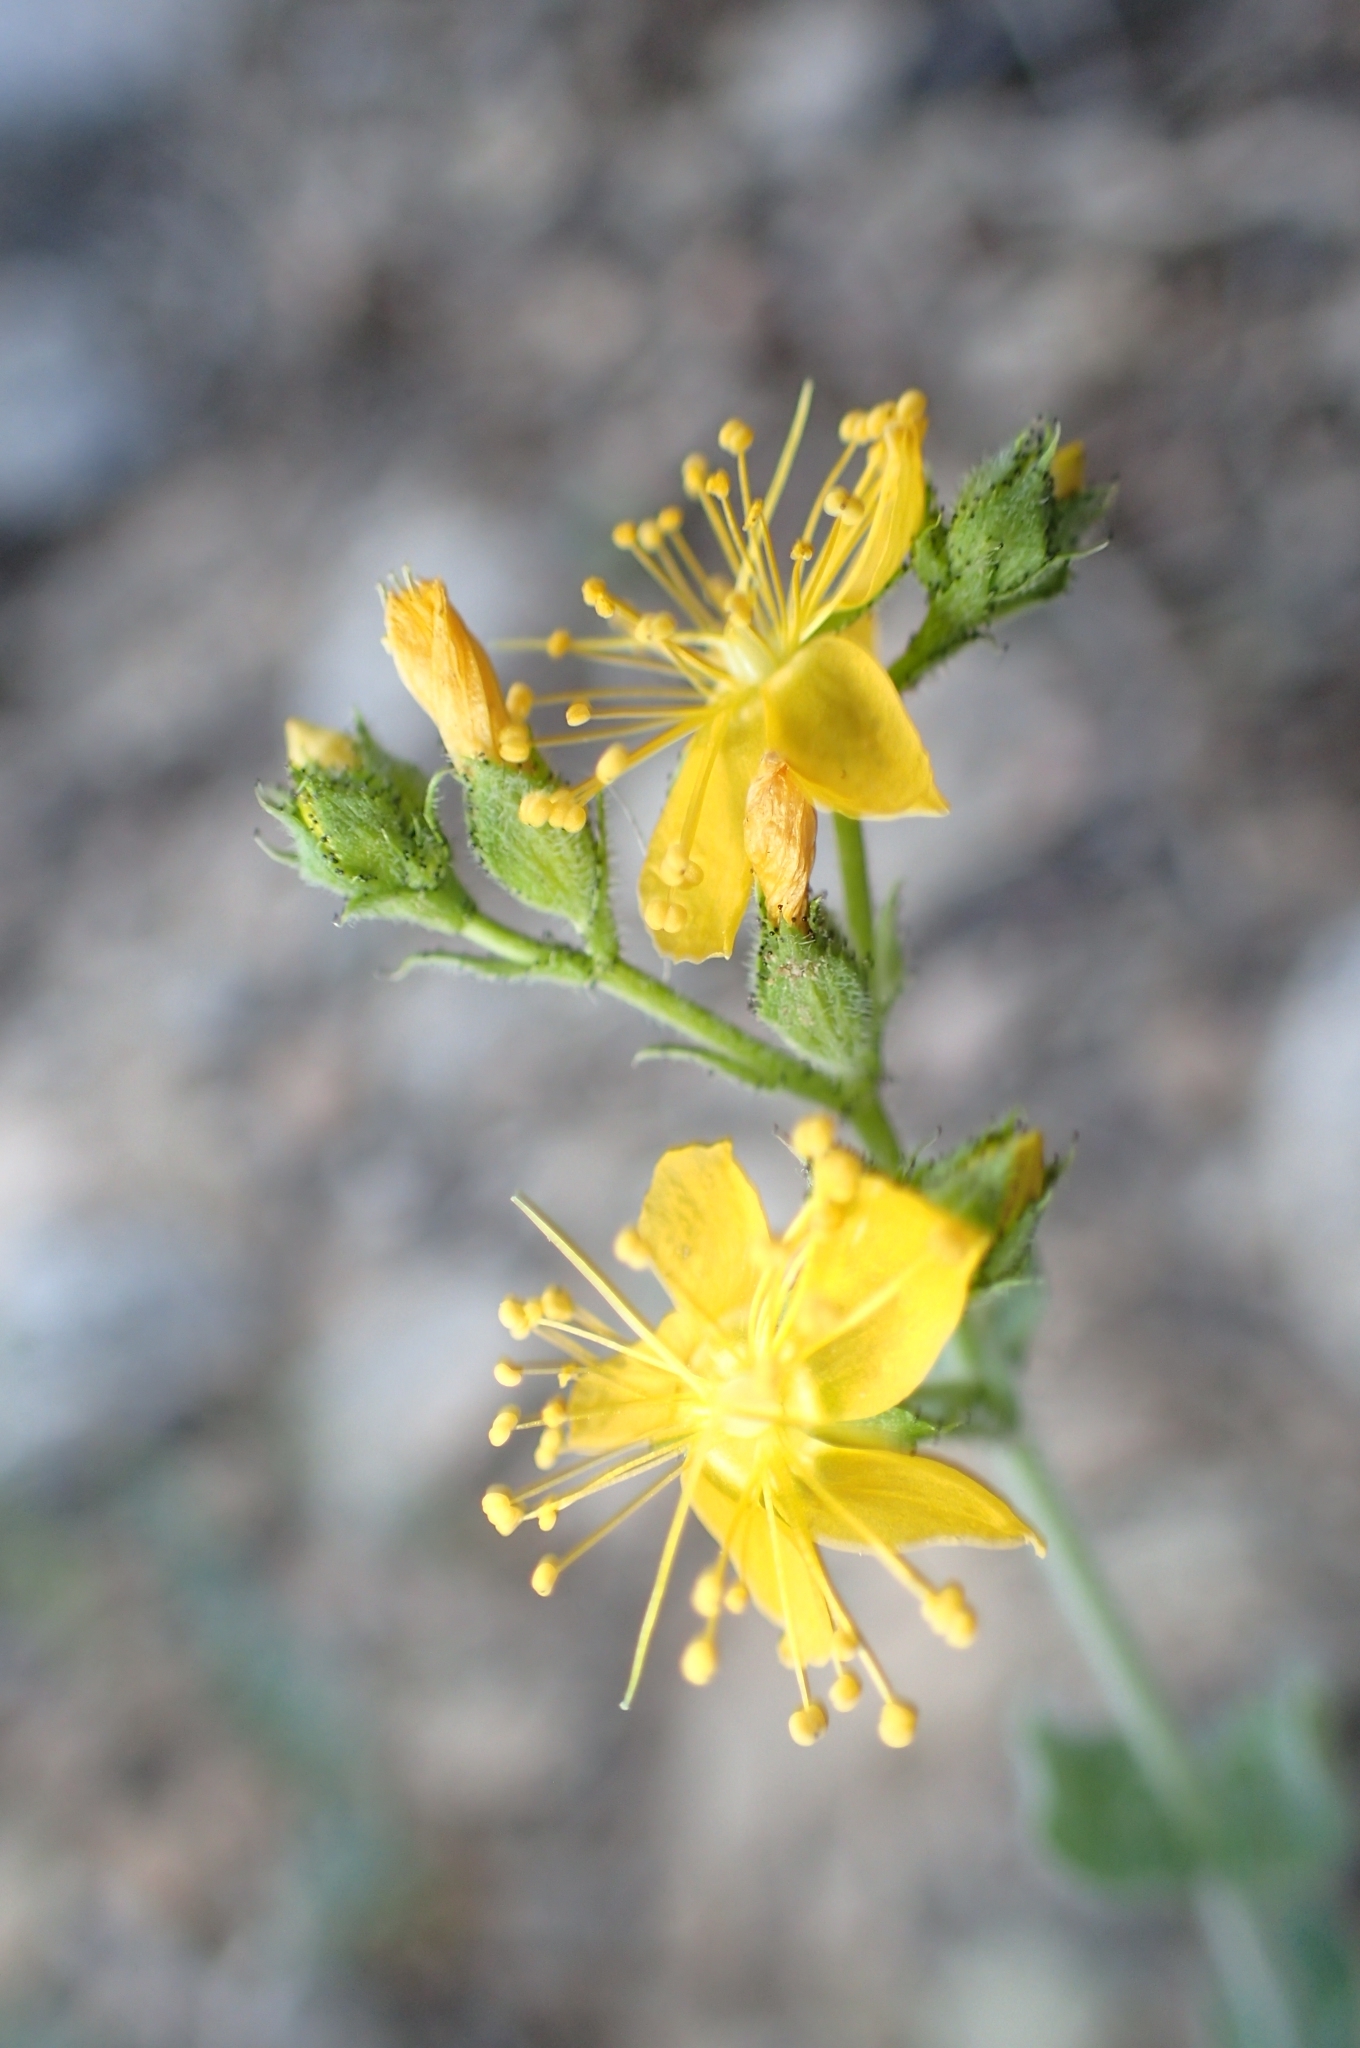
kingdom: Plantae
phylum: Tracheophyta
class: Magnoliopsida
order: Malpighiales
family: Hypericaceae
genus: Hypericum
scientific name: Hypericum tomentosum
